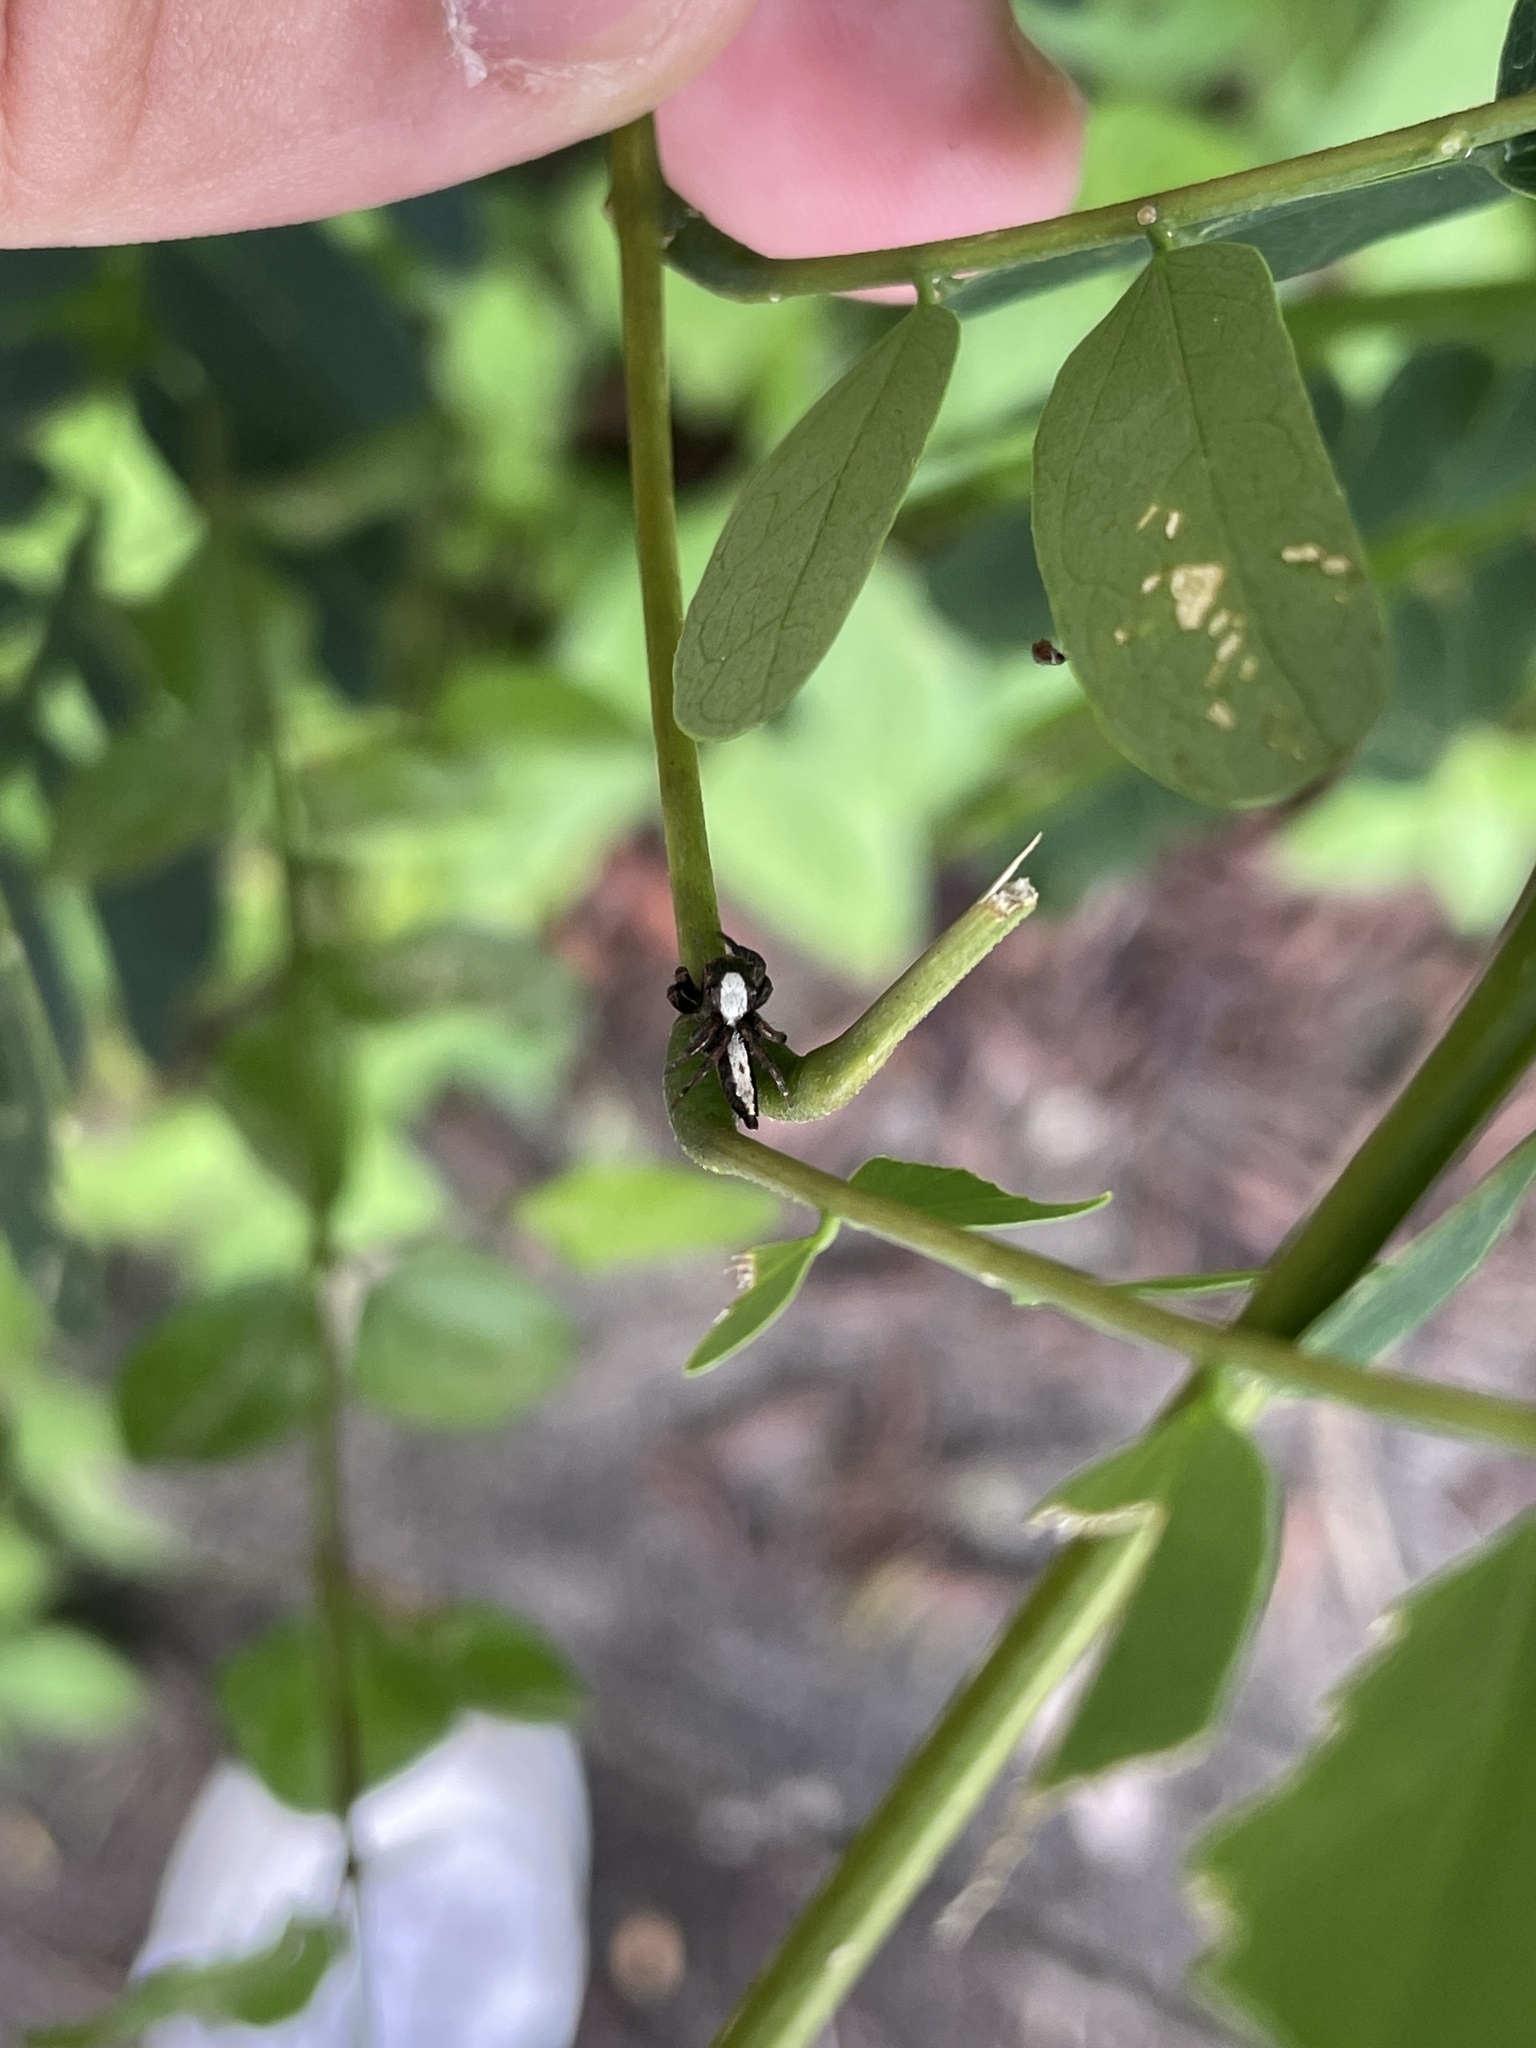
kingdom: Animalia
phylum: Arthropoda
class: Arachnida
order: Araneae
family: Salticidae
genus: Thyene
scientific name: Thyene orientalis
